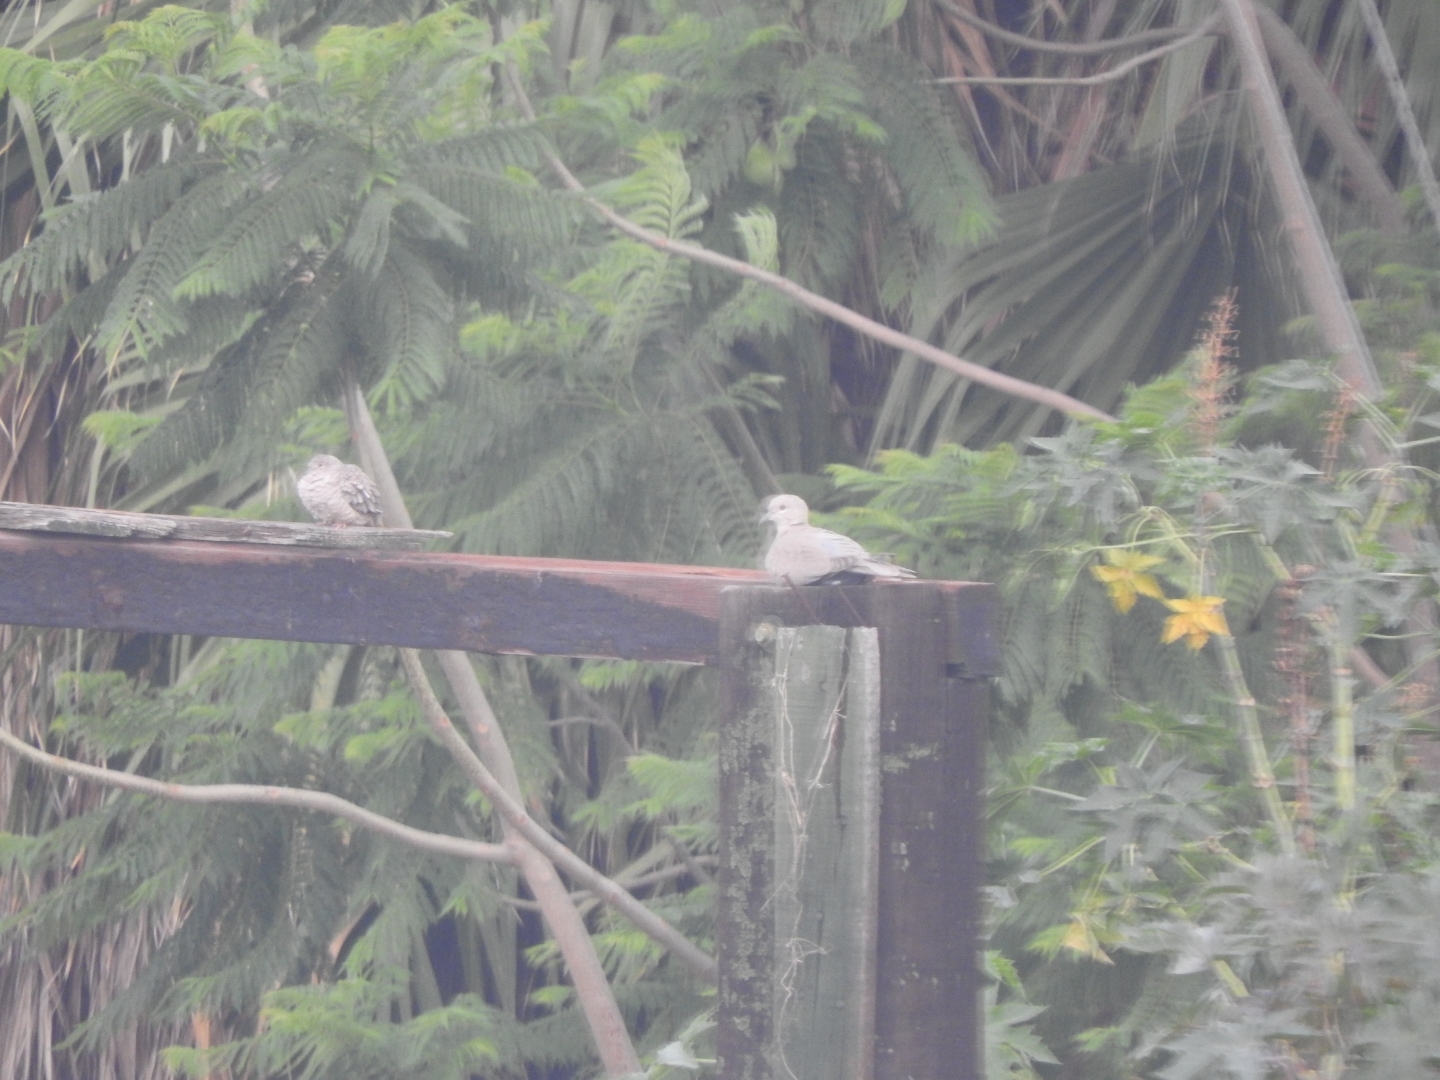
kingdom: Animalia
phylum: Chordata
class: Aves
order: Columbiformes
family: Columbidae
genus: Columbina
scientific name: Columbina inca
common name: Inca dove
